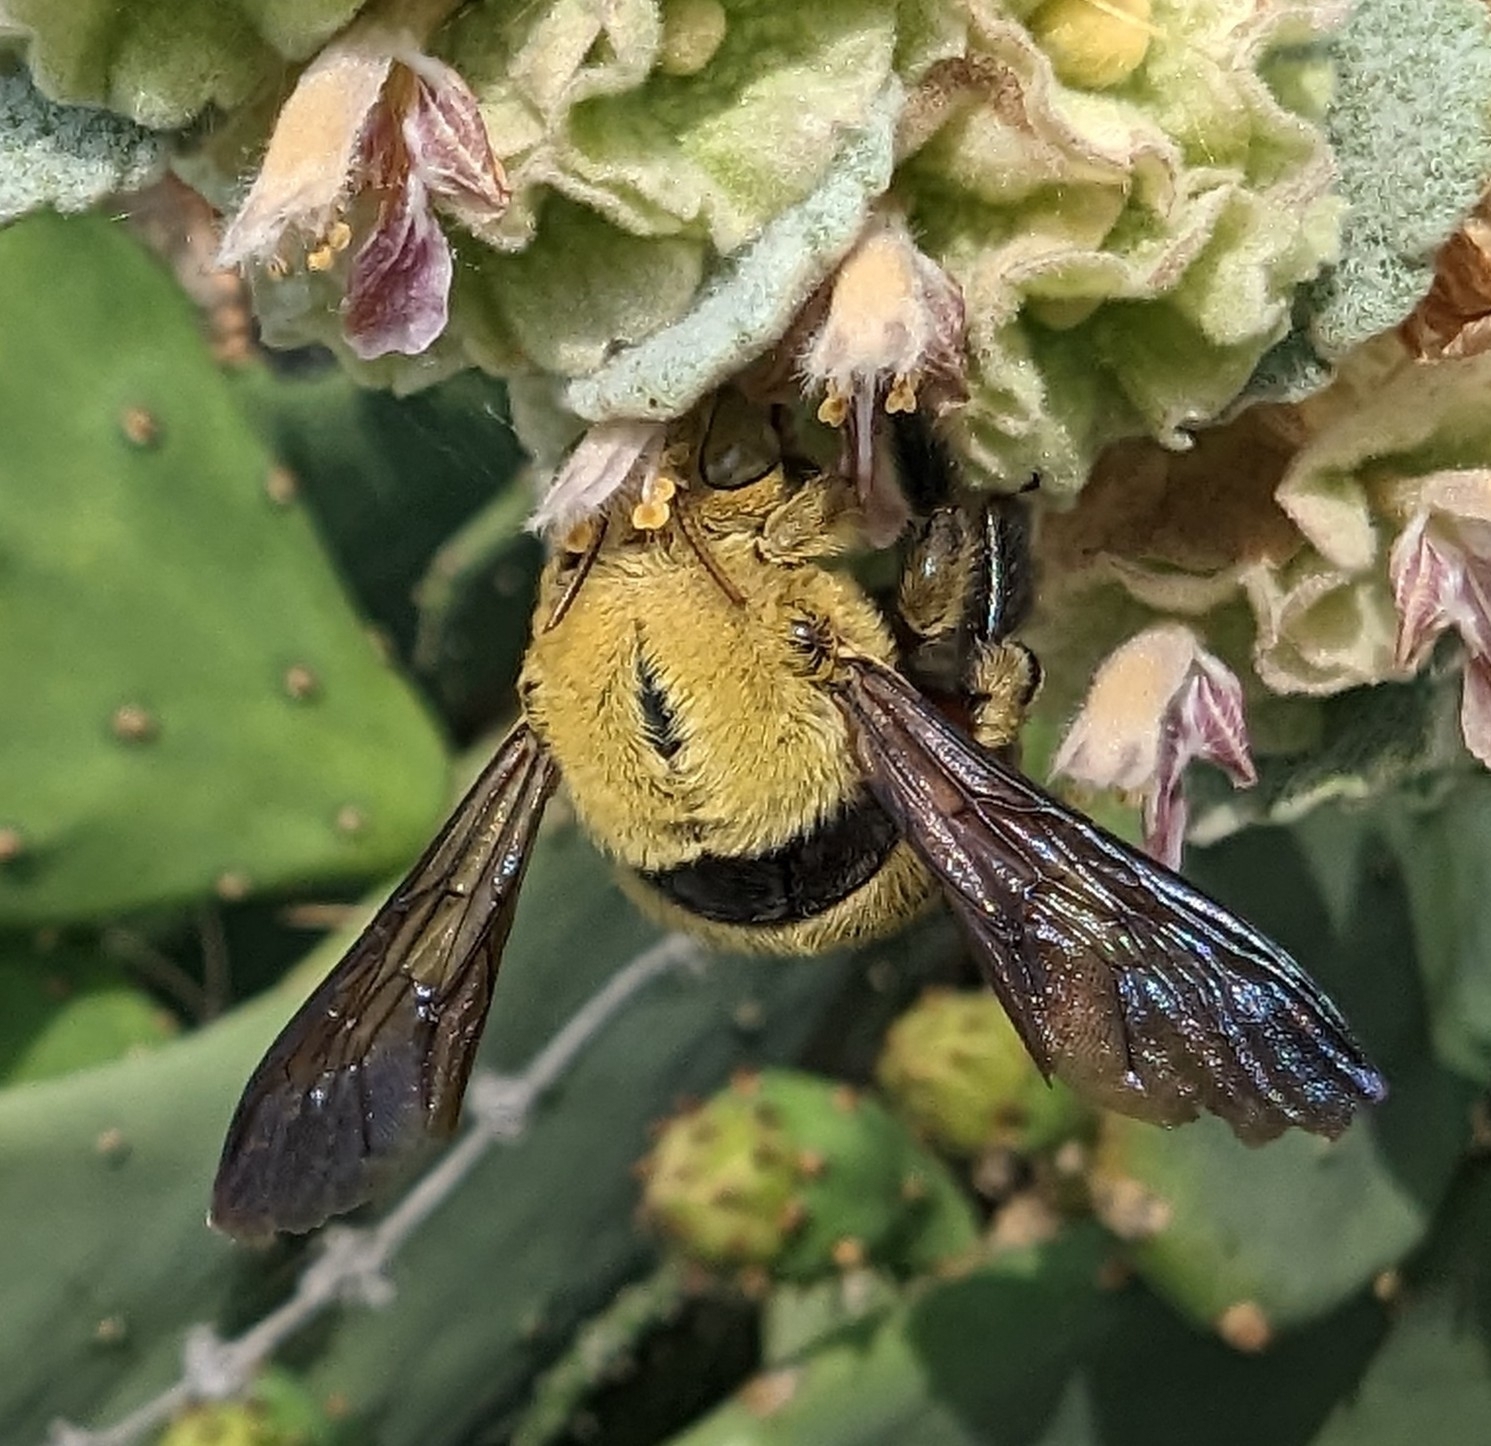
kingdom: Animalia
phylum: Arthropoda
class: Insecta
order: Hymenoptera
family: Apidae
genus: Xylocopa
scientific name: Xylocopa pubescens
